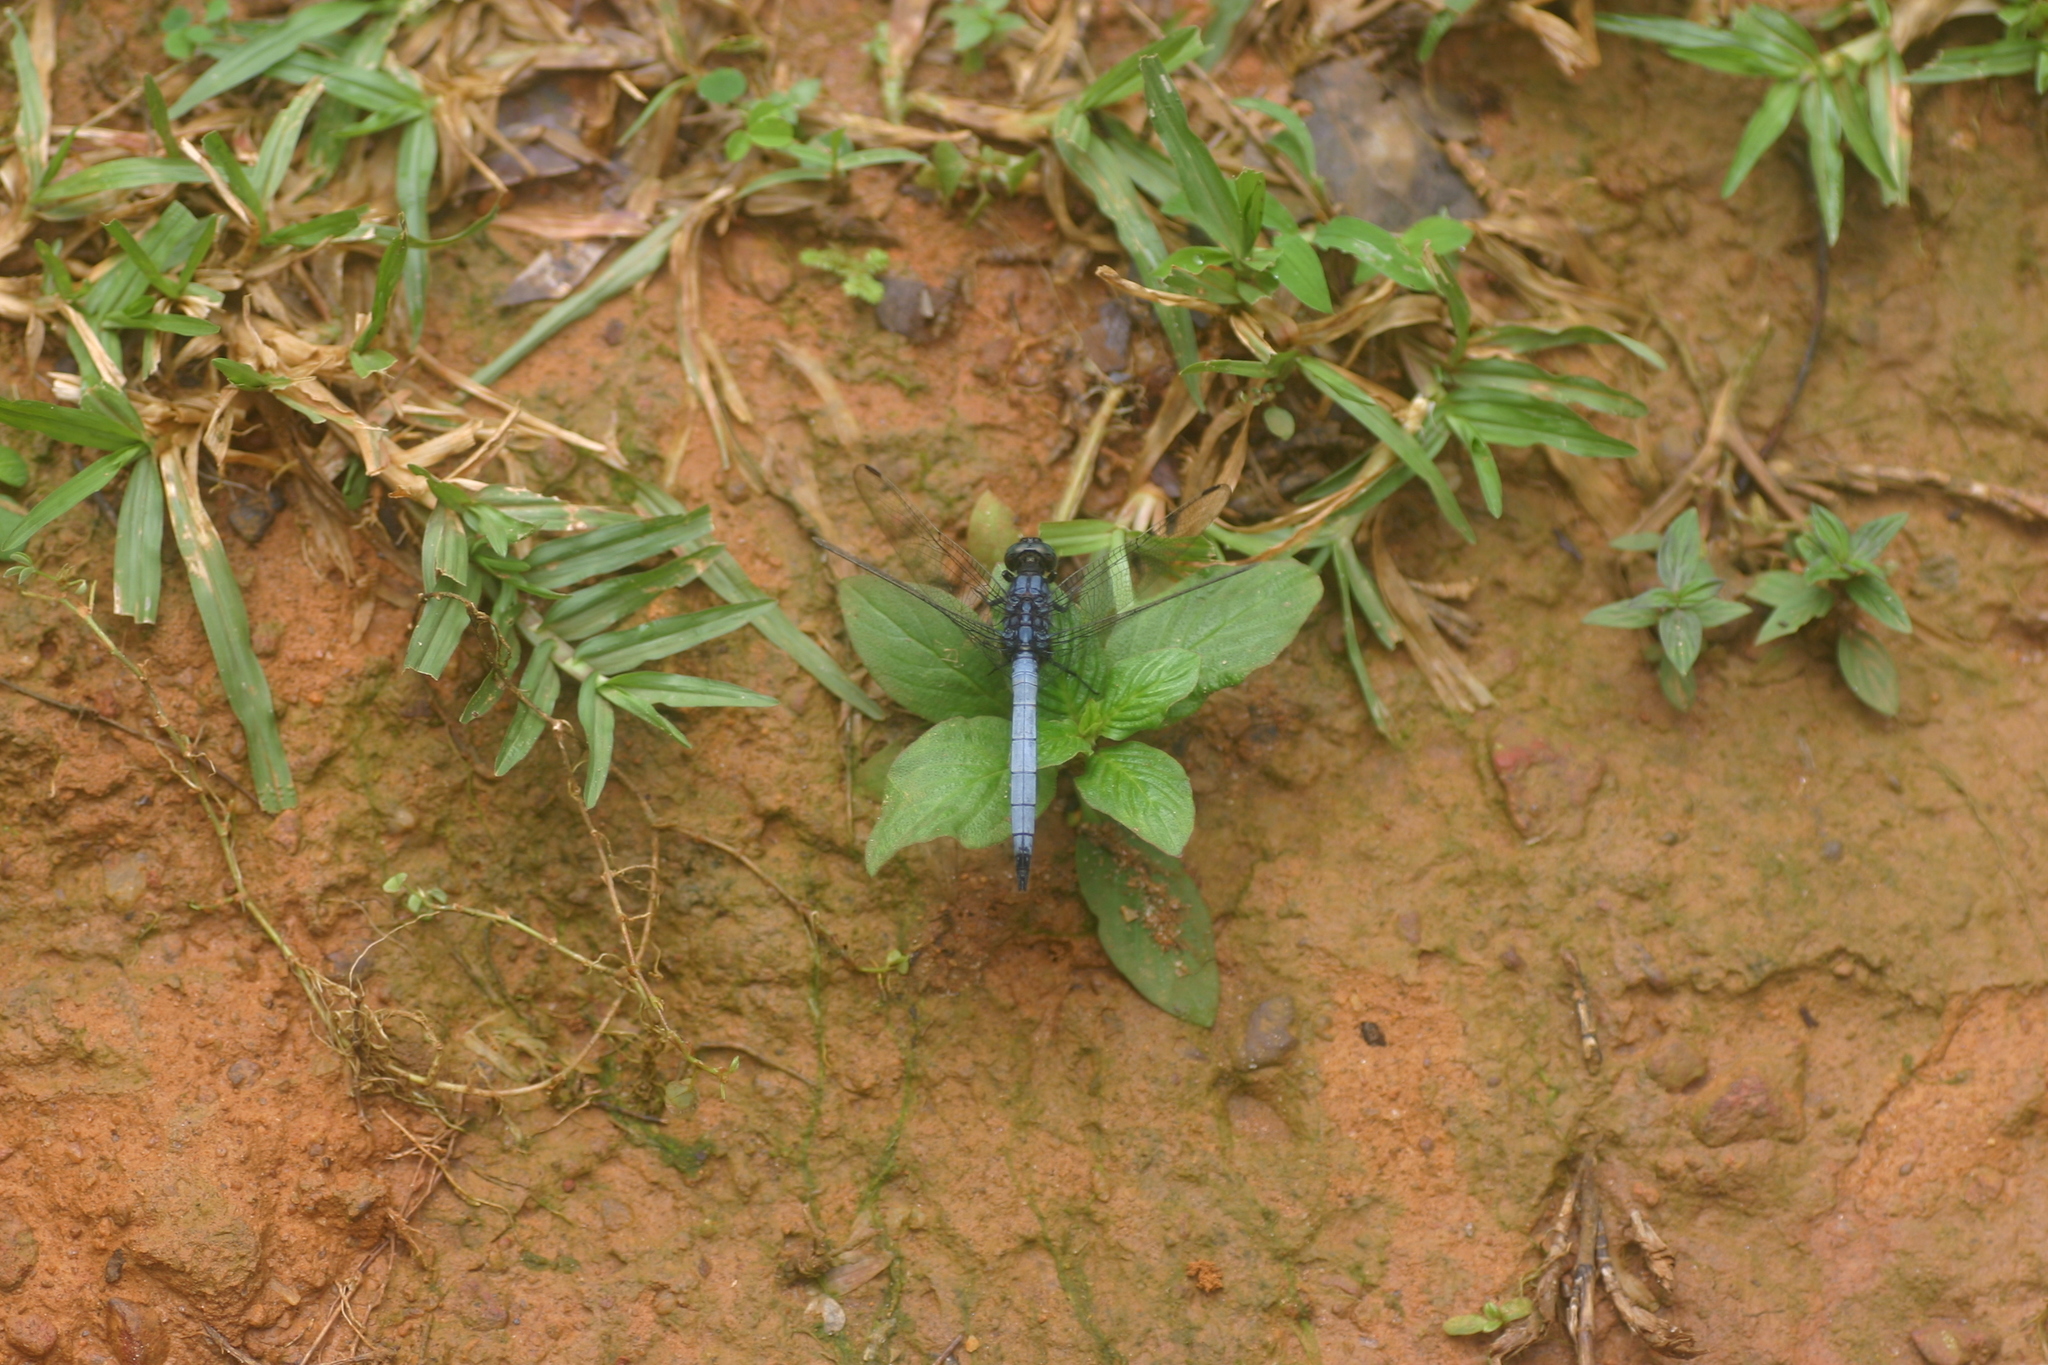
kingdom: Animalia
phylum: Arthropoda
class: Insecta
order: Odonata
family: Libellulidae
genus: Orthetrum
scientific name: Orthetrum glaucum
